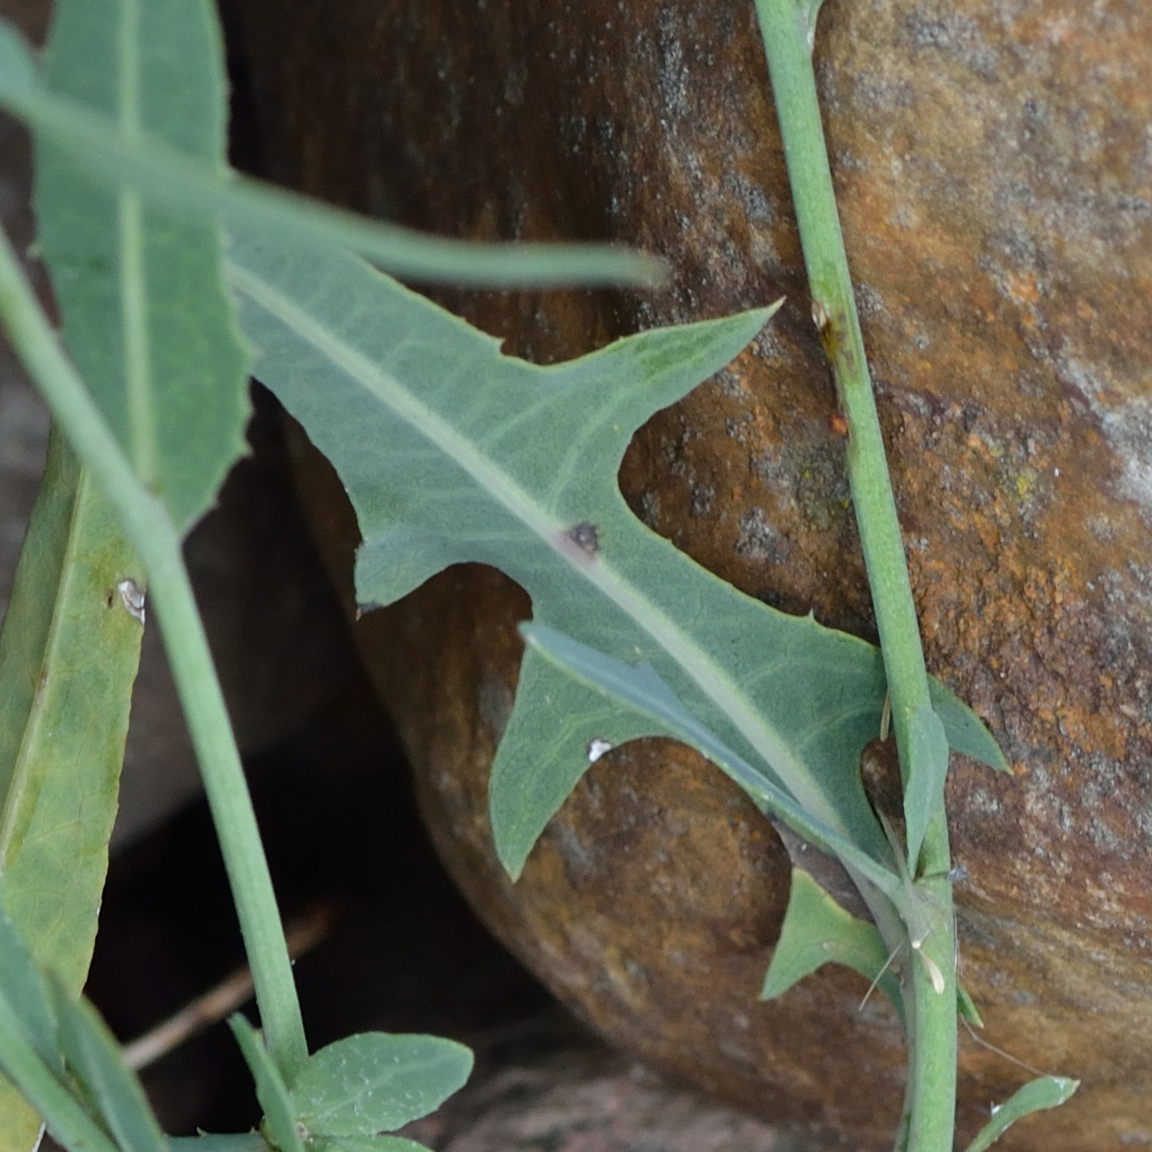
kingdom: Plantae
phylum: Tracheophyta
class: Magnoliopsida
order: Asterales
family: Asteraceae
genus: Lactuca
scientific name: Lactuca tatarica
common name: Blue lettuce
